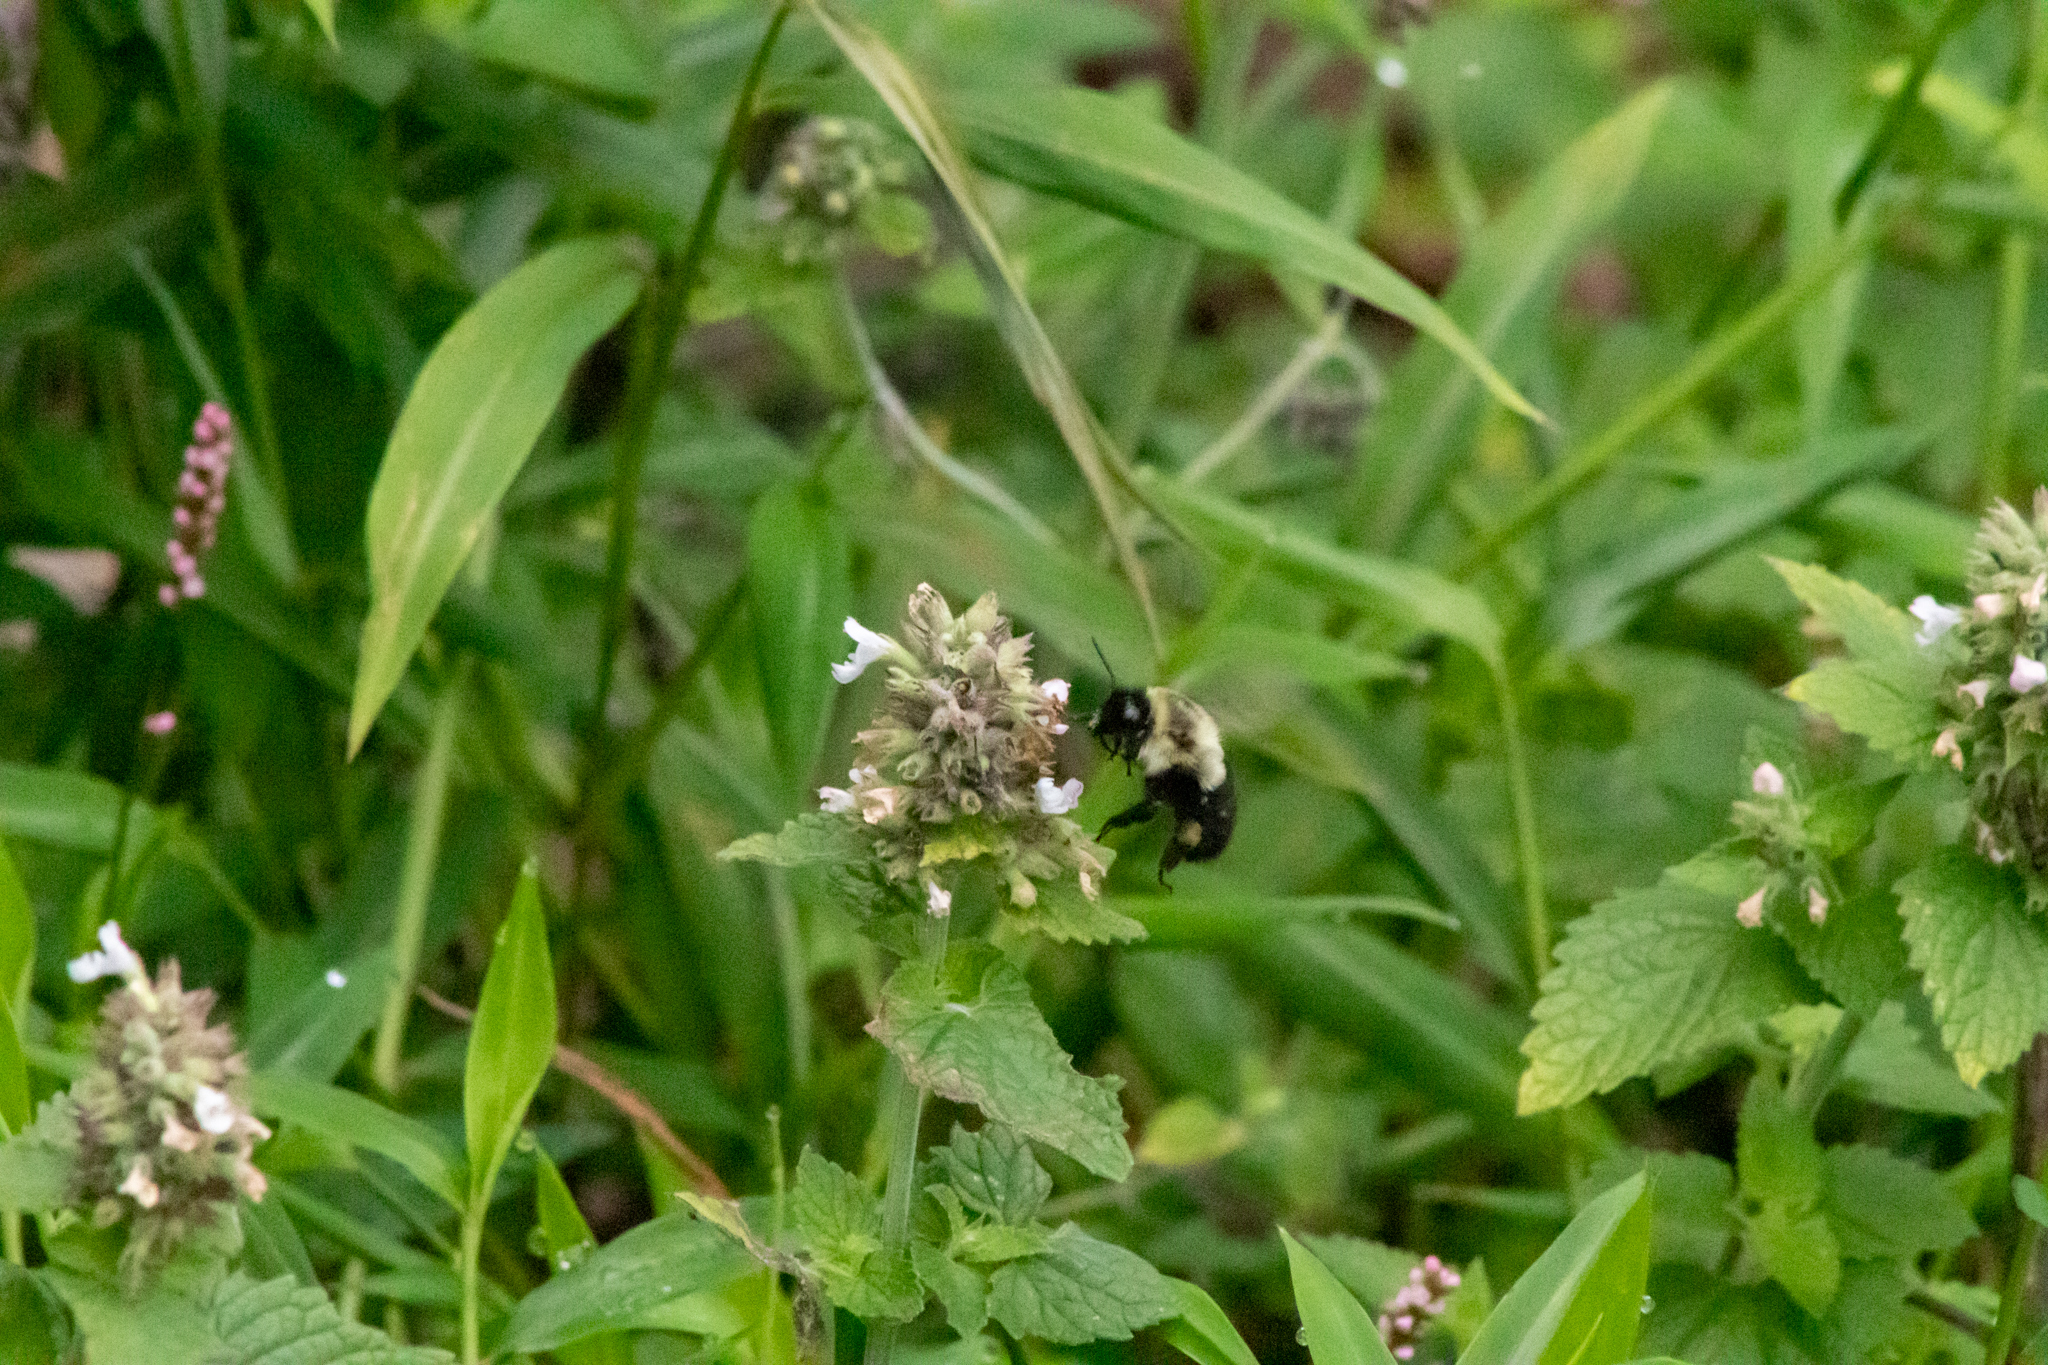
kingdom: Plantae
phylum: Tracheophyta
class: Magnoliopsida
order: Lamiales
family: Lamiaceae
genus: Nepeta
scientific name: Nepeta cataria
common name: Catnip
